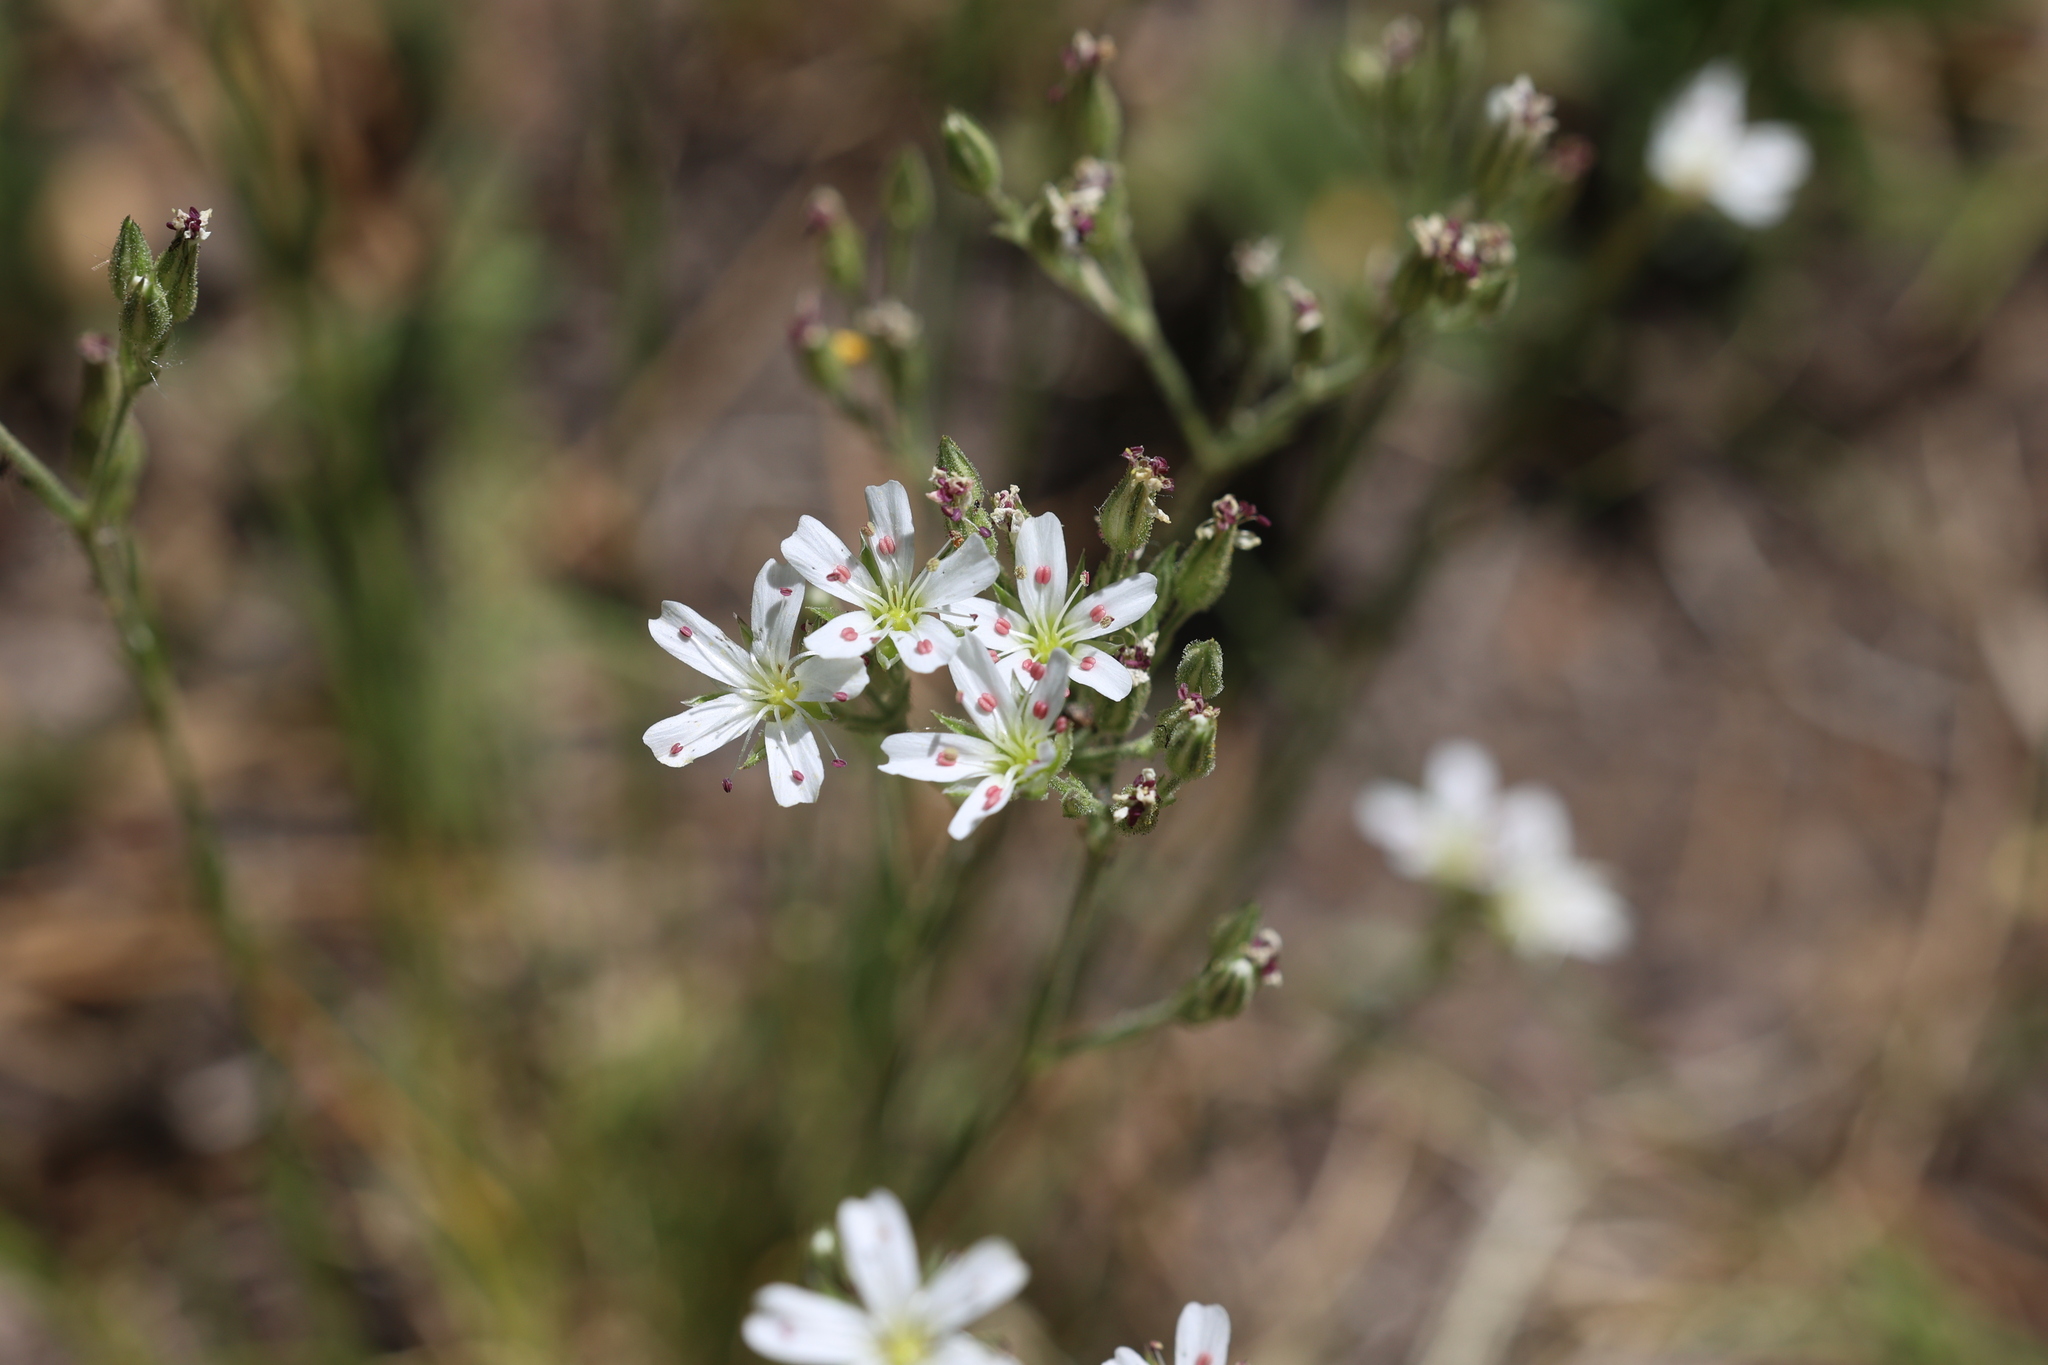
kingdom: Plantae
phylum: Tracheophyta
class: Magnoliopsida
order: Caryophyllales
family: Caryophyllaceae
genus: Eremogone
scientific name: Eremogone fendleri
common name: Fendler's sandwort
